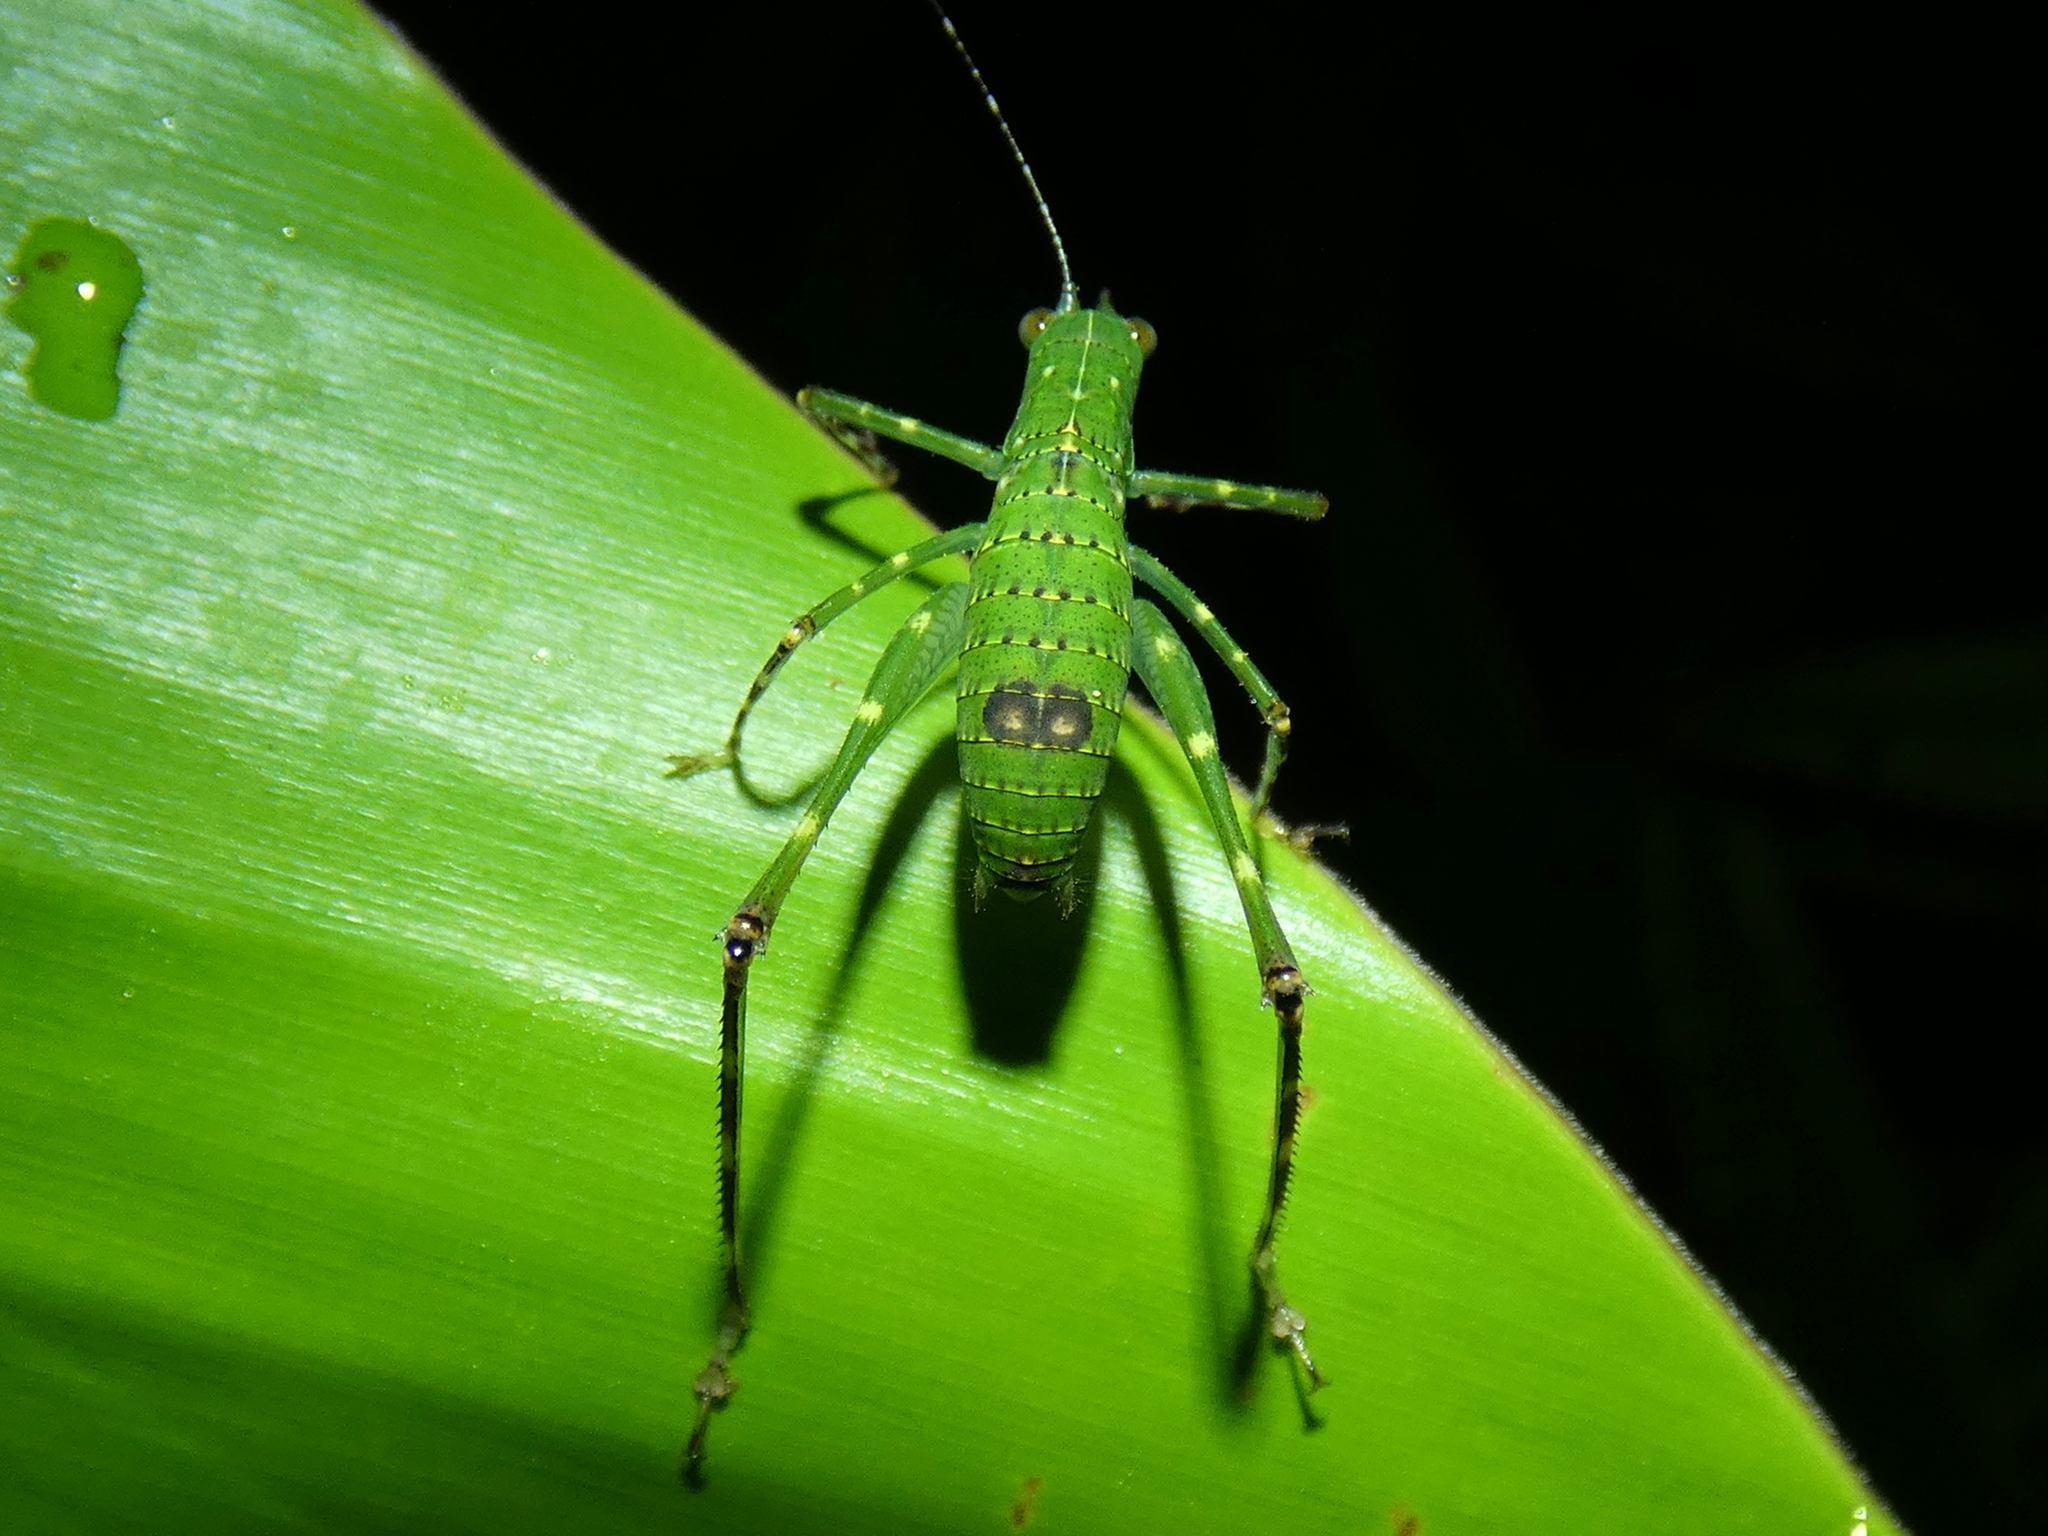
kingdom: Animalia
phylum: Arthropoda
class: Insecta
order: Orthoptera
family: Tettigoniidae
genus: Caedicia
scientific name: Caedicia webberi
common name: Webber's caedicia
